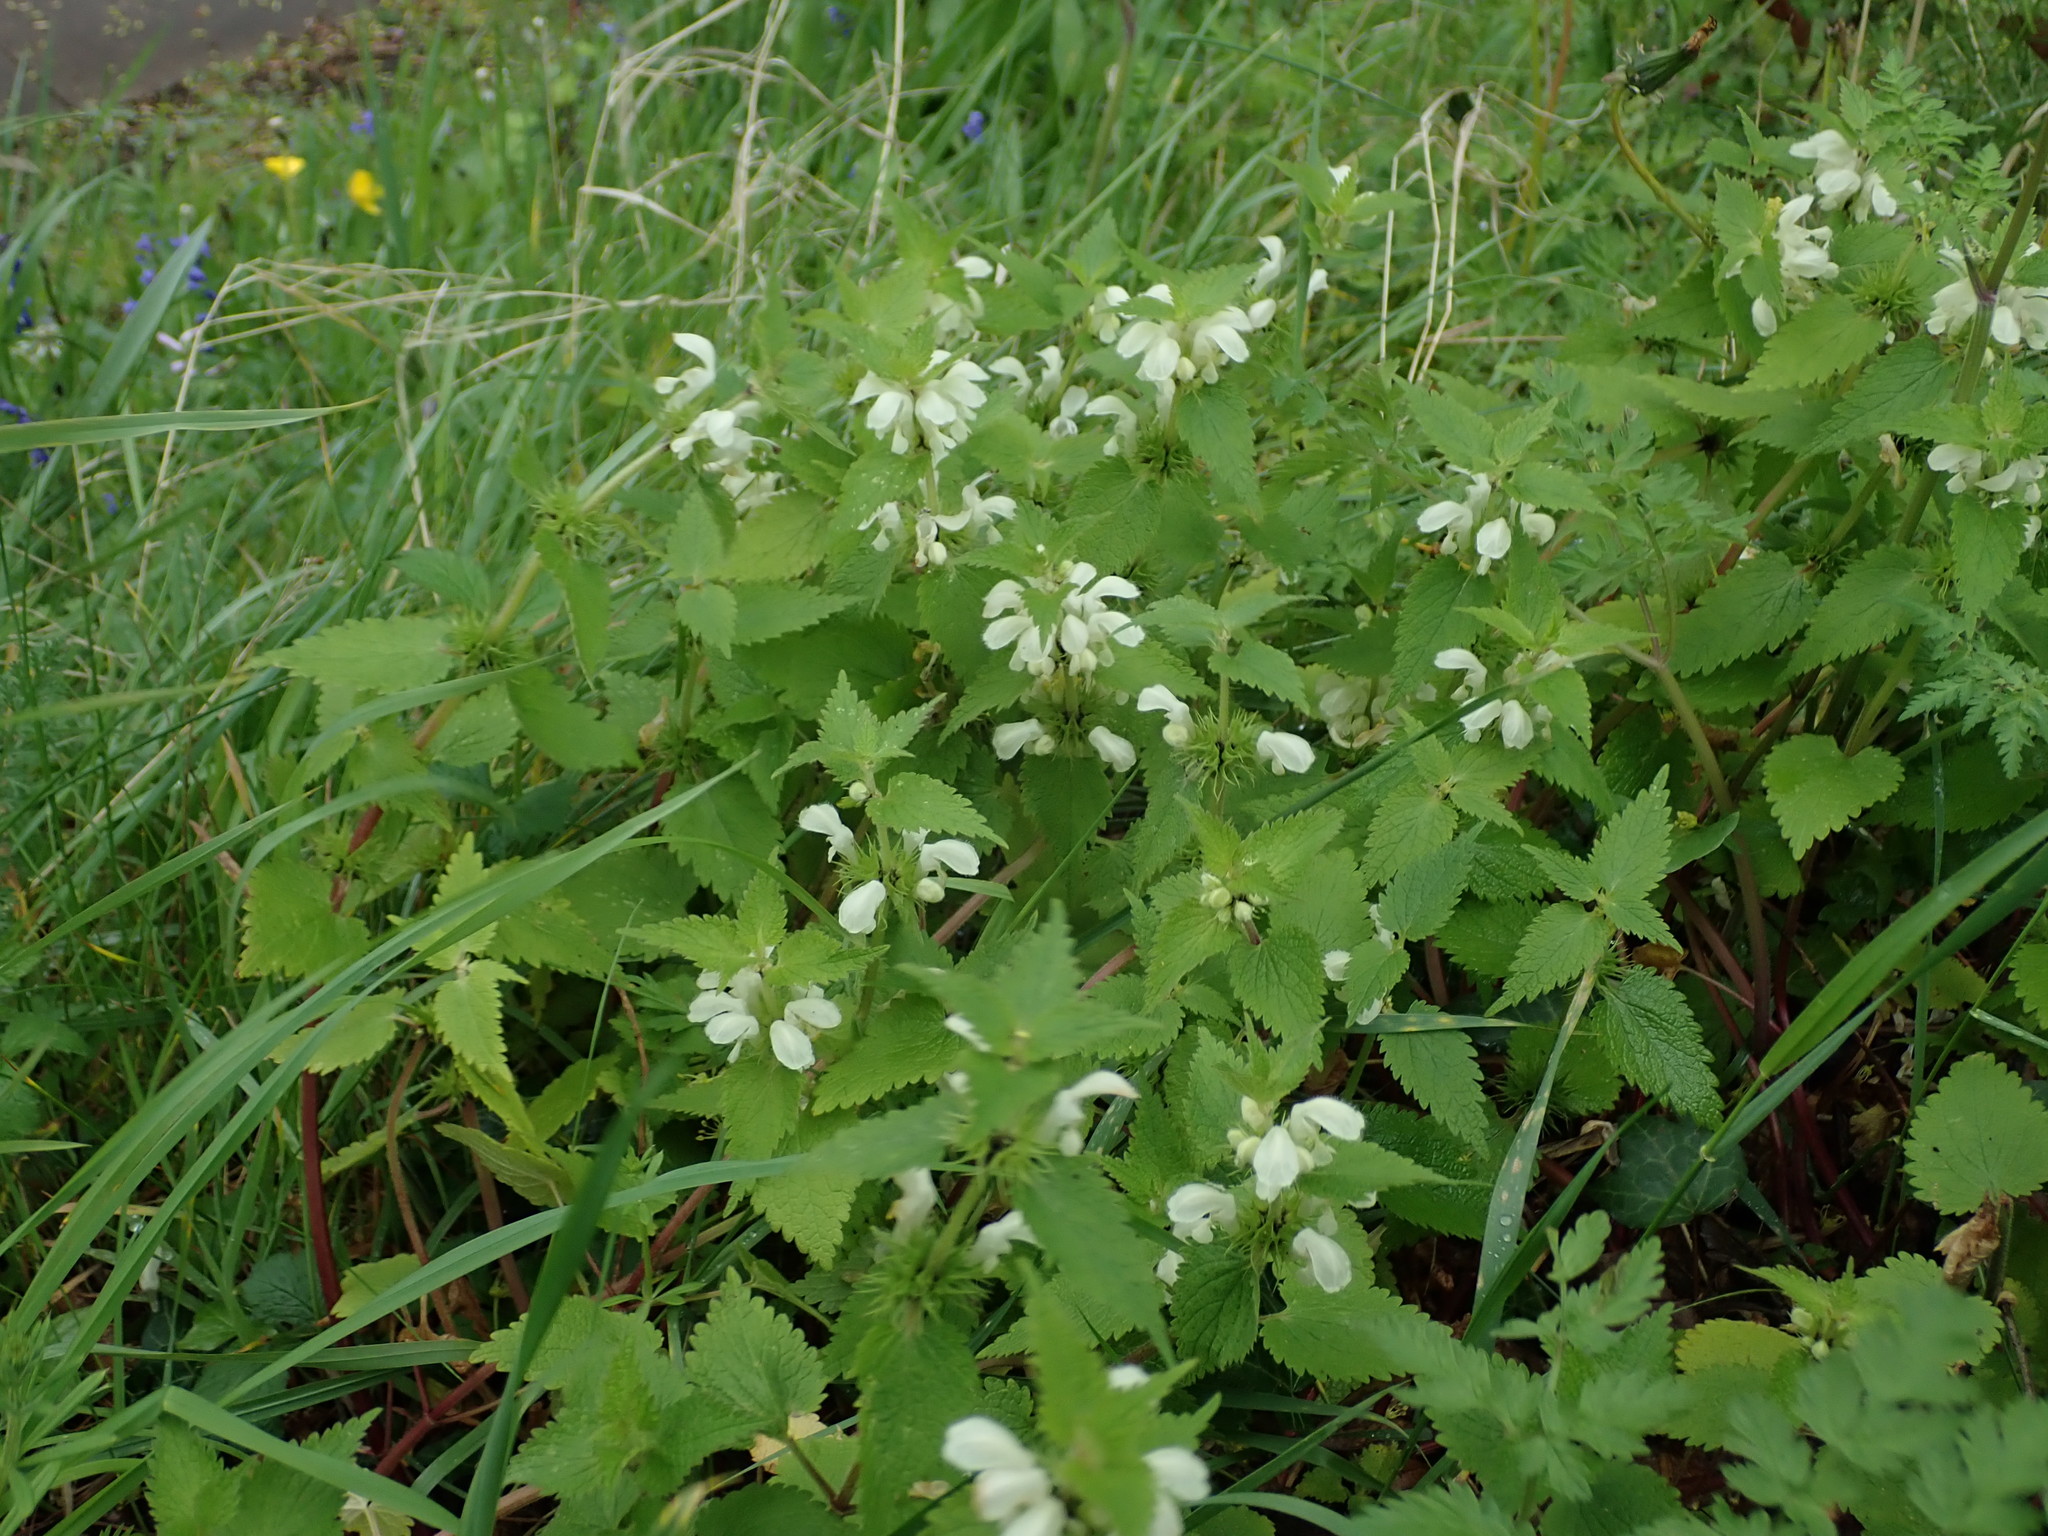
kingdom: Plantae
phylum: Tracheophyta
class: Magnoliopsida
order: Lamiales
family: Lamiaceae
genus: Lamium
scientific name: Lamium album
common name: White dead-nettle
